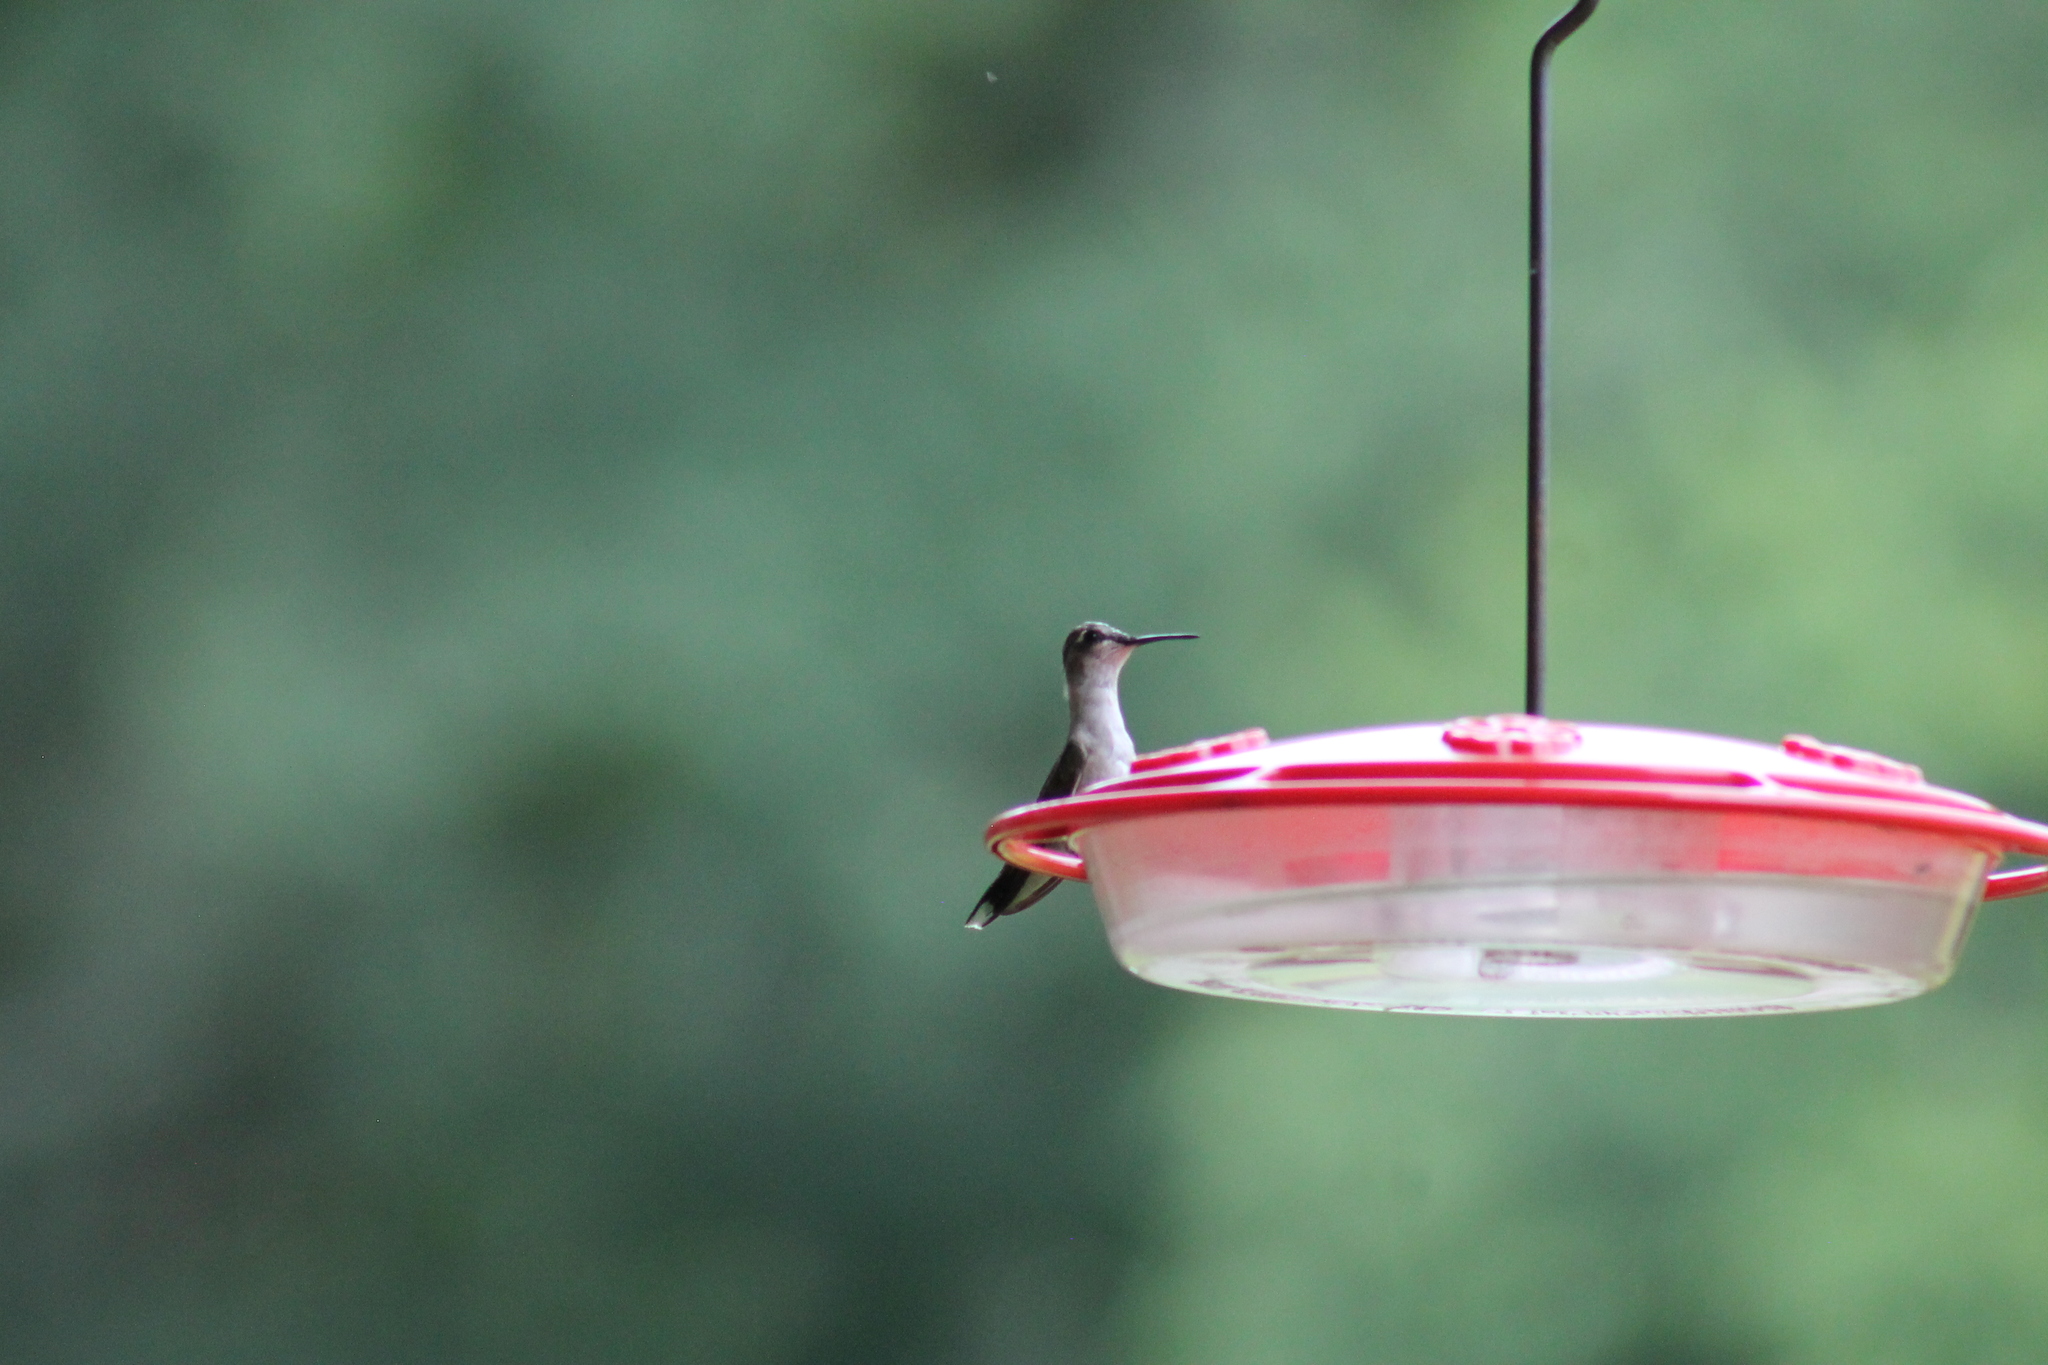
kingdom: Animalia
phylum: Chordata
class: Aves
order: Apodiformes
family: Trochilidae
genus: Archilochus
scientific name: Archilochus colubris
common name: Ruby-throated hummingbird
